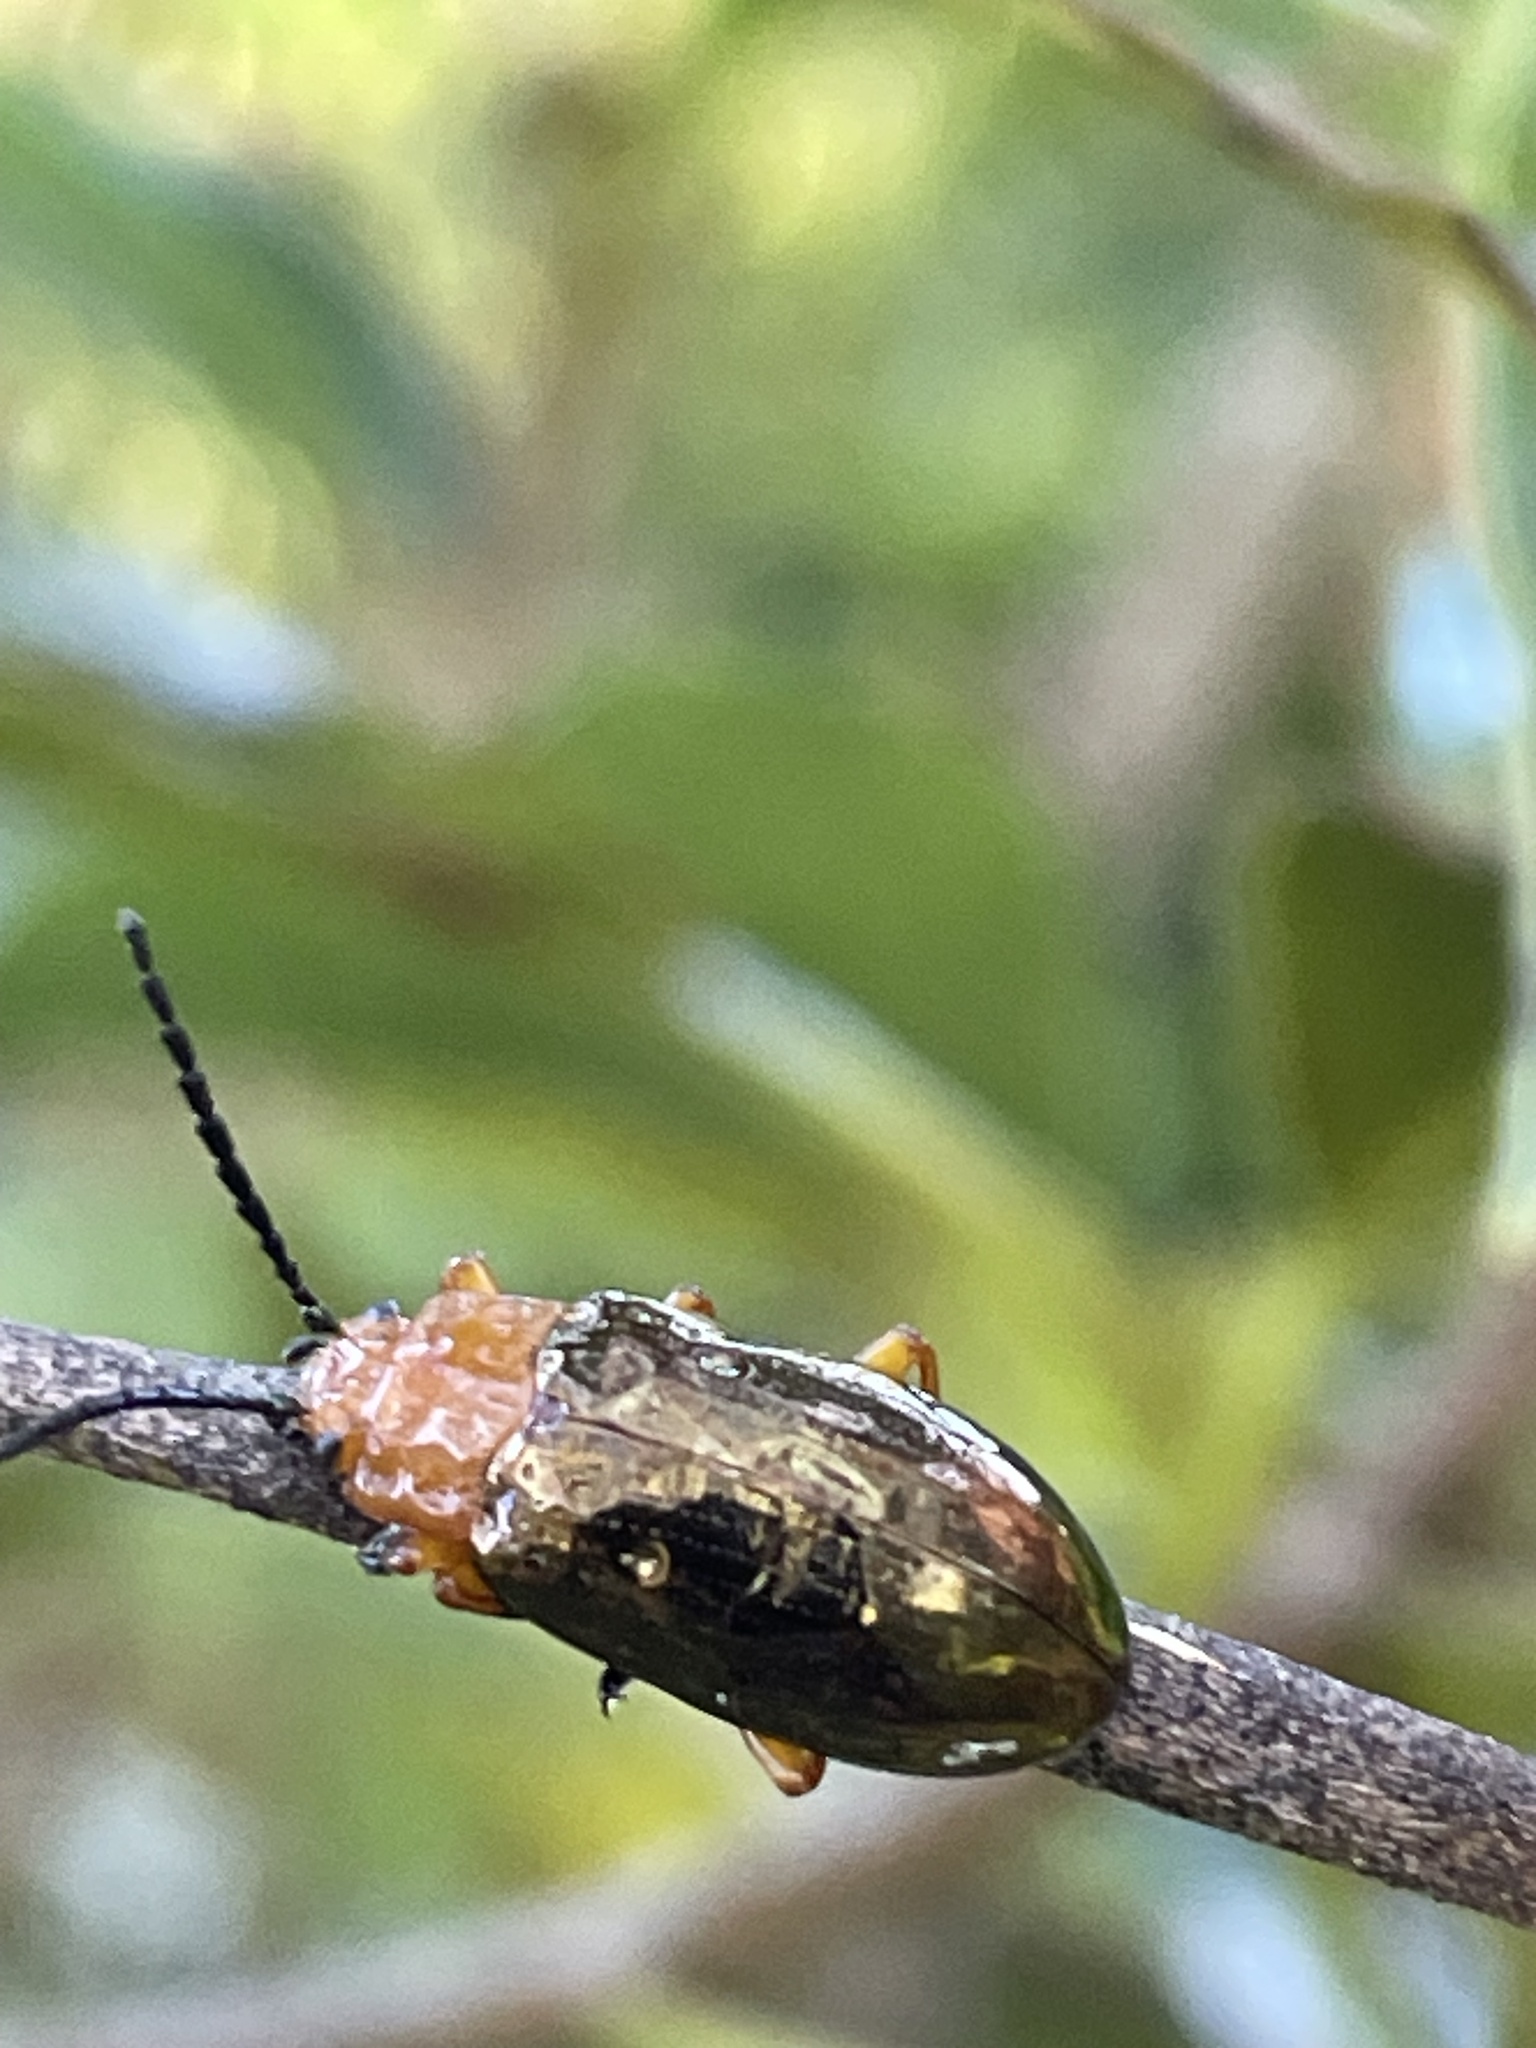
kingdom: Animalia
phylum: Arthropoda
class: Insecta
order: Coleoptera
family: Chrysomelidae
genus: Lamprolina
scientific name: Lamprolina
